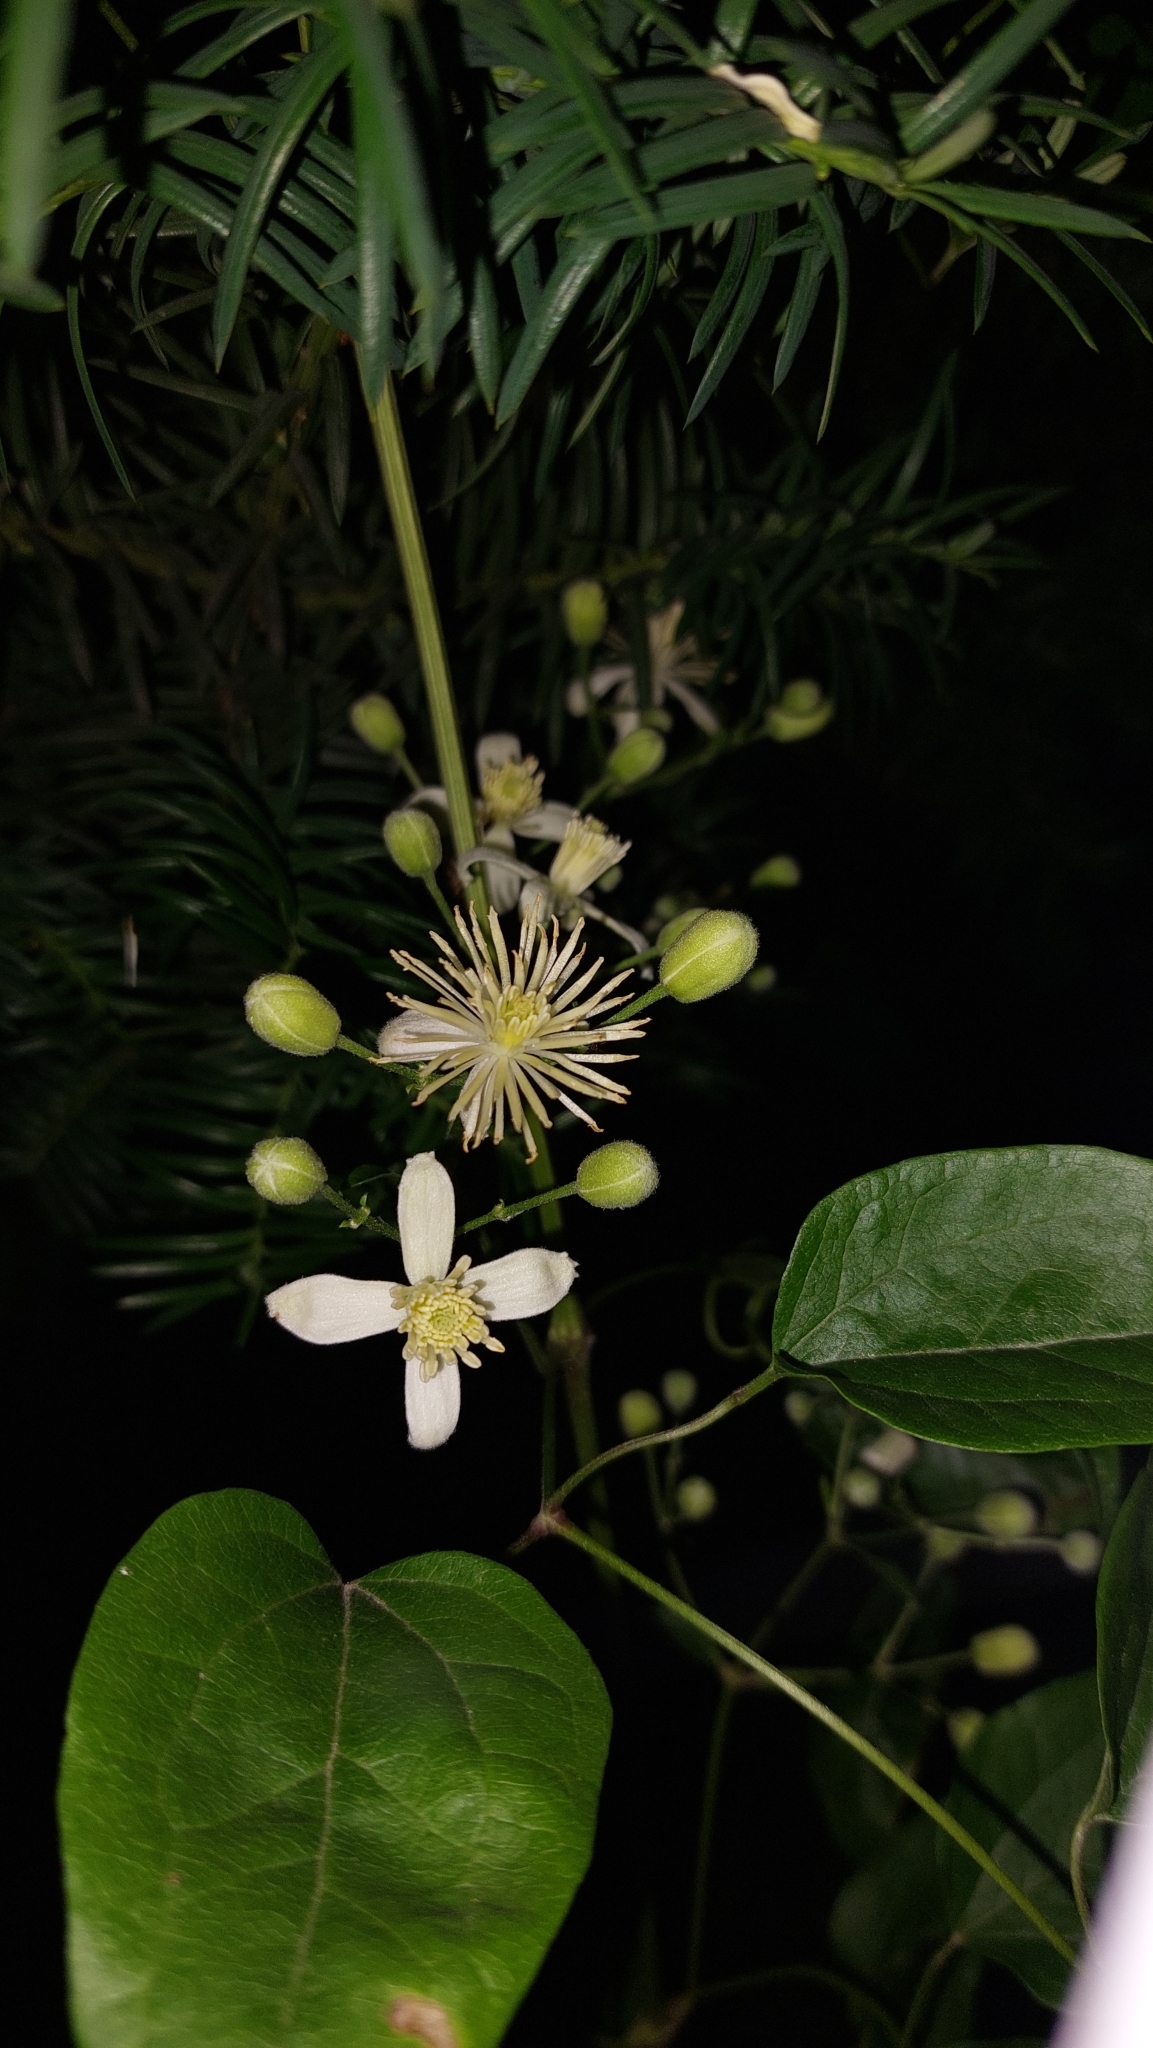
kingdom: Plantae
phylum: Tracheophyta
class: Magnoliopsida
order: Ranunculales
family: Ranunculaceae
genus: Clematis
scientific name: Clematis vitalba
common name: Evergreen clematis
